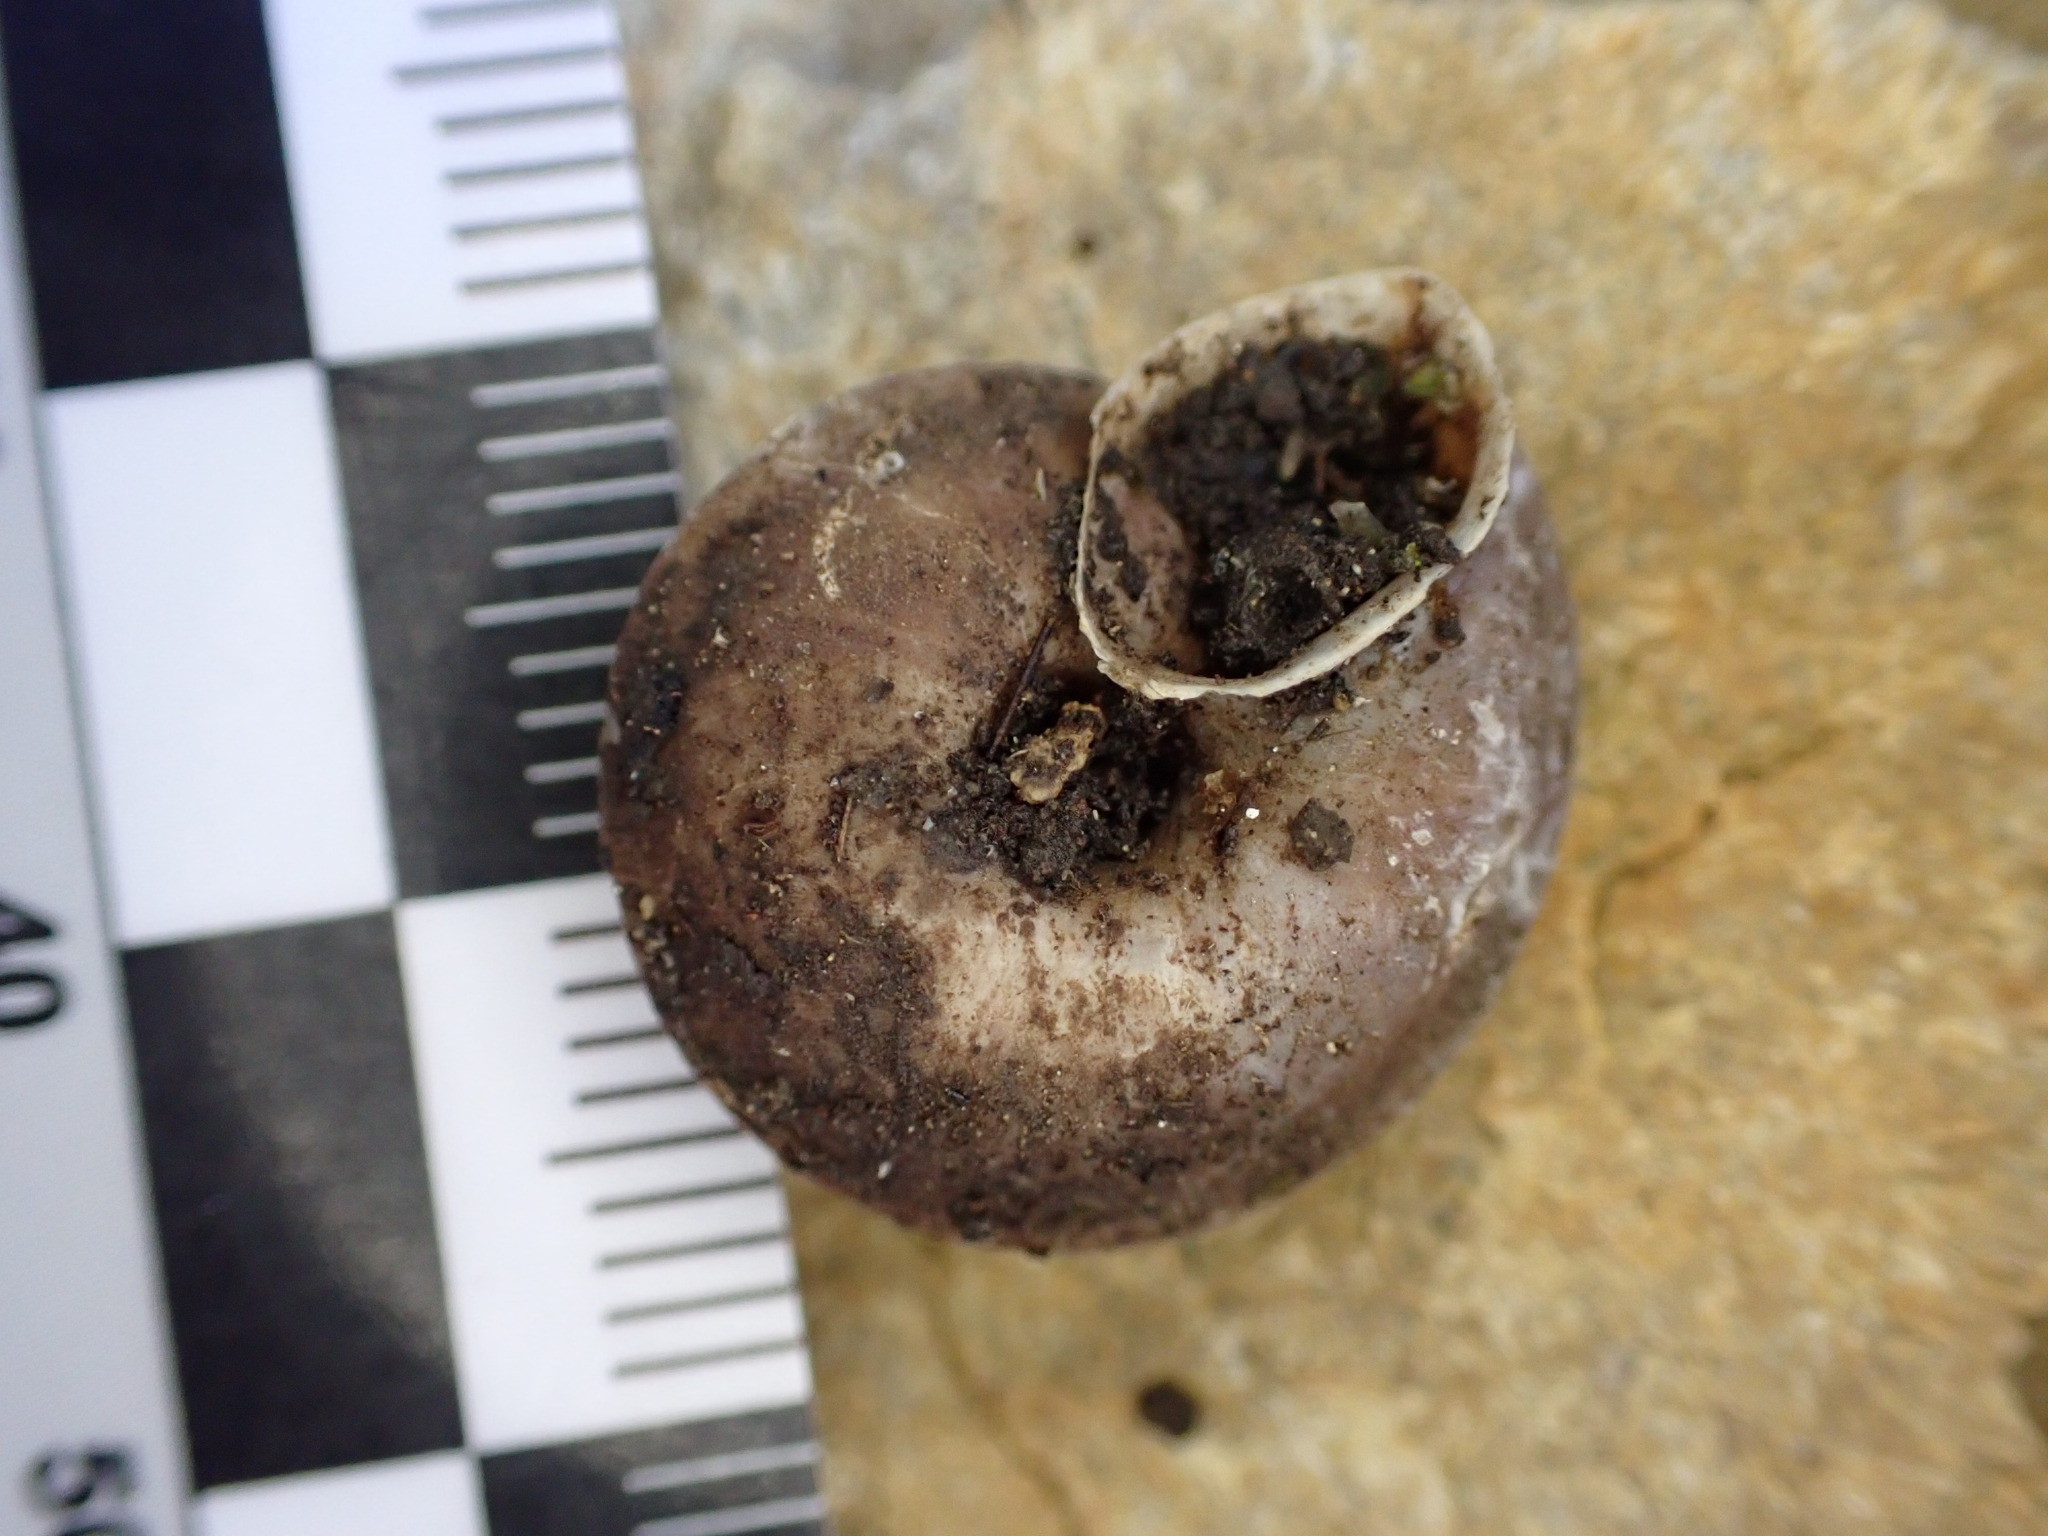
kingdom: Animalia
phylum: Mollusca
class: Gastropoda
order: Stylommatophora
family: Helicidae
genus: Helicigona
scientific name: Helicigona lapicida
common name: Lapidary snail
